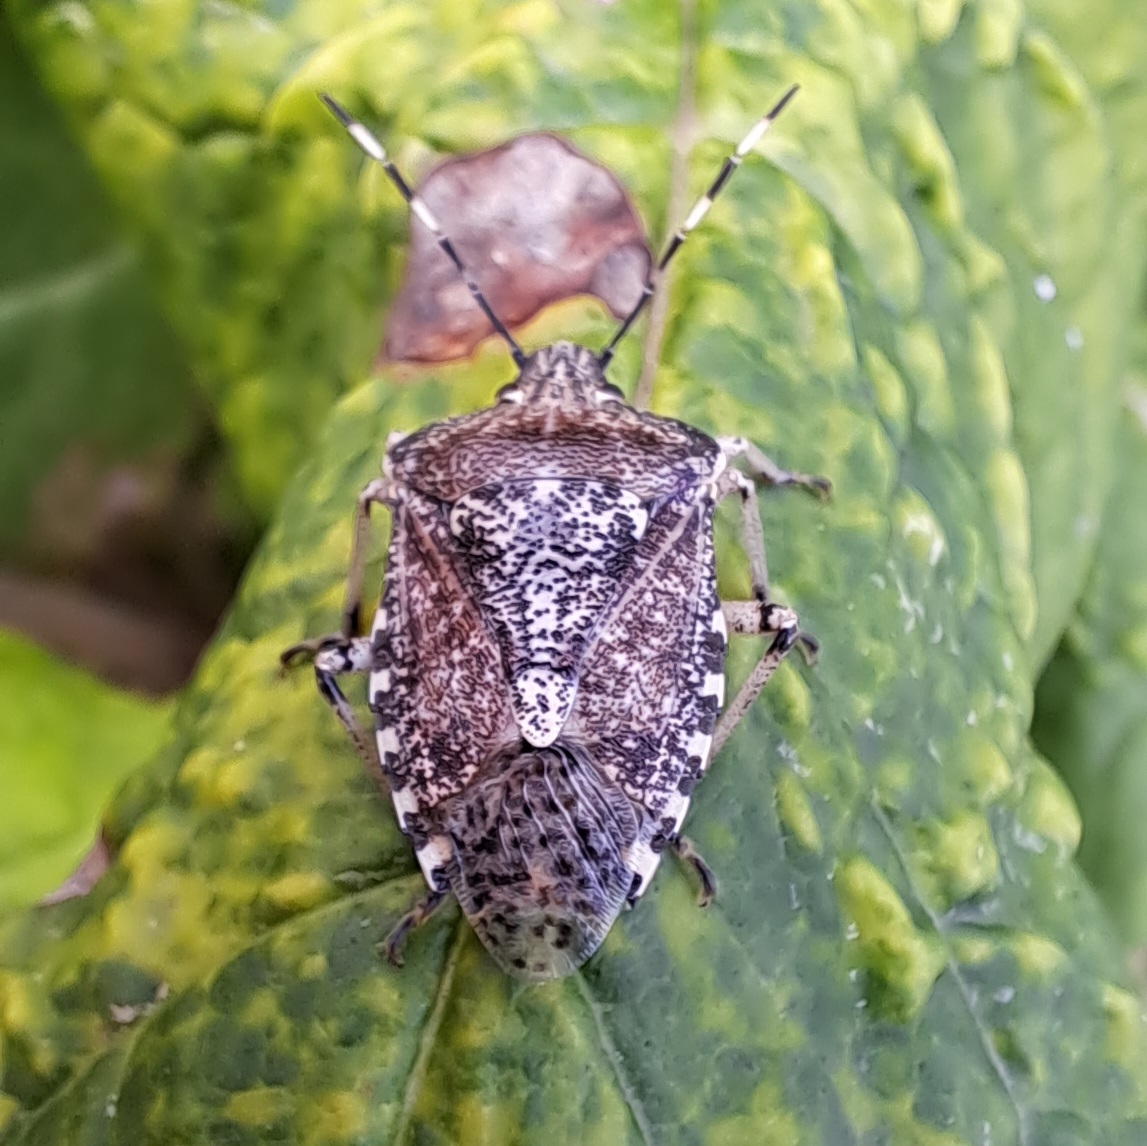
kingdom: Animalia
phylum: Arthropoda
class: Insecta
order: Hemiptera
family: Pentatomidae
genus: Rhaphigaster
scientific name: Rhaphigaster nebulosa
